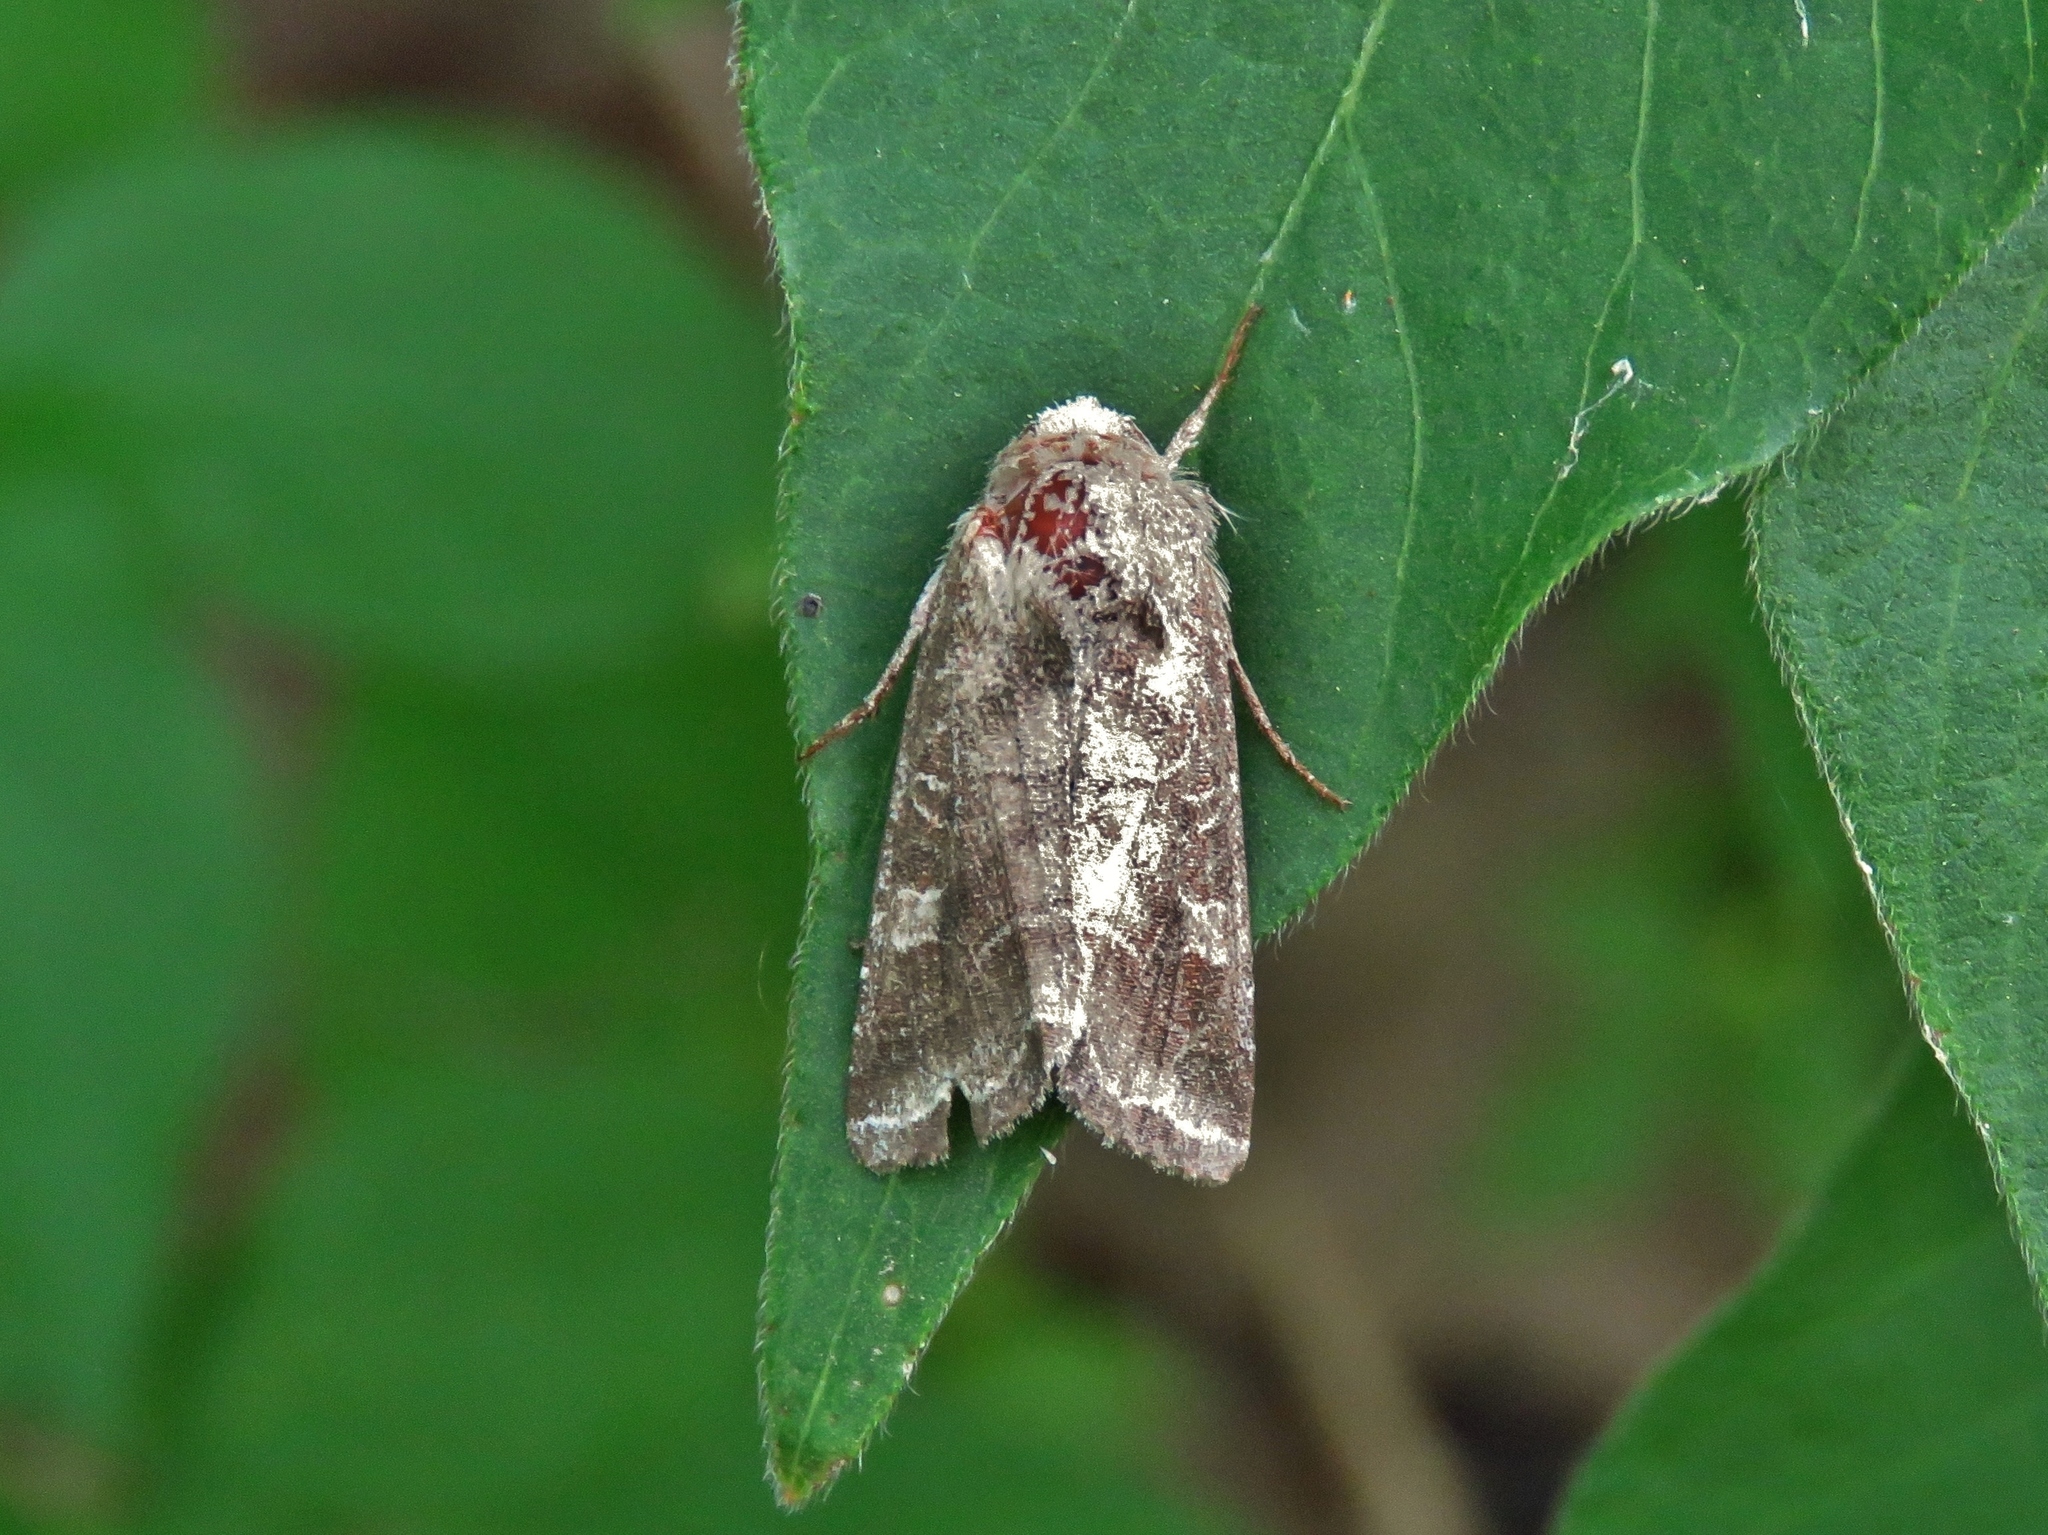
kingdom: Animalia
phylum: Arthropoda
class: Insecta
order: Lepidoptera
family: Noctuidae
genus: Lacinipolia
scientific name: Lacinipolia erecta
